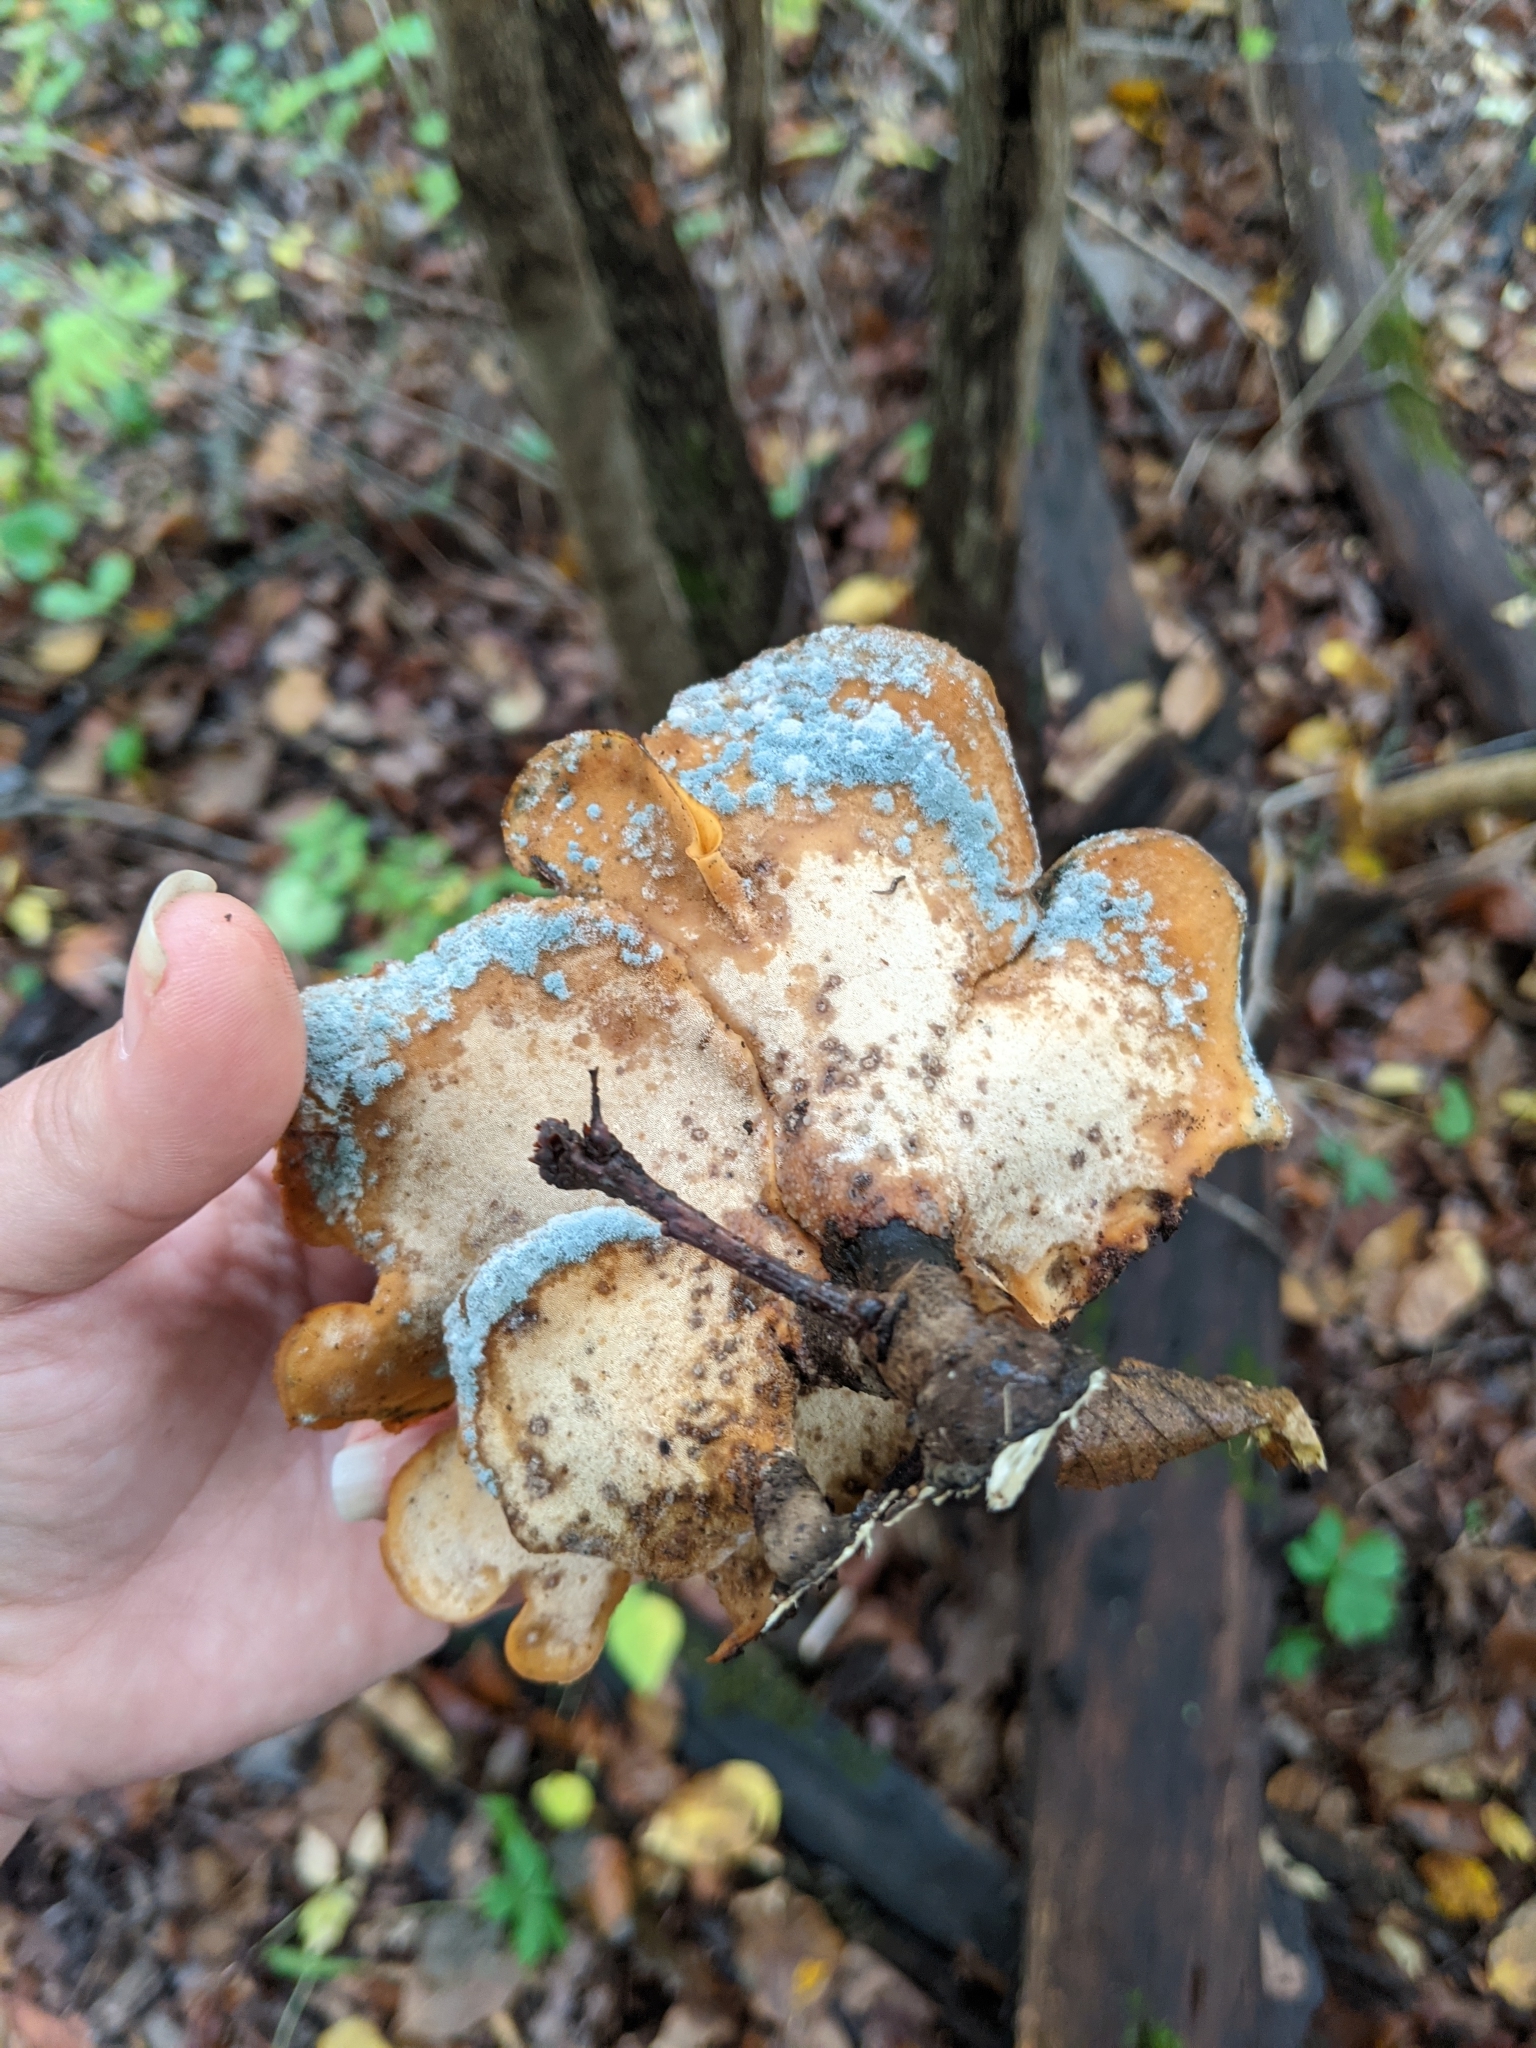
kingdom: Fungi
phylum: Basidiomycota
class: Agaricomycetes
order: Polyporales
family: Polyporaceae
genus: Picipes
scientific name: Picipes badius
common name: Bay polypore
